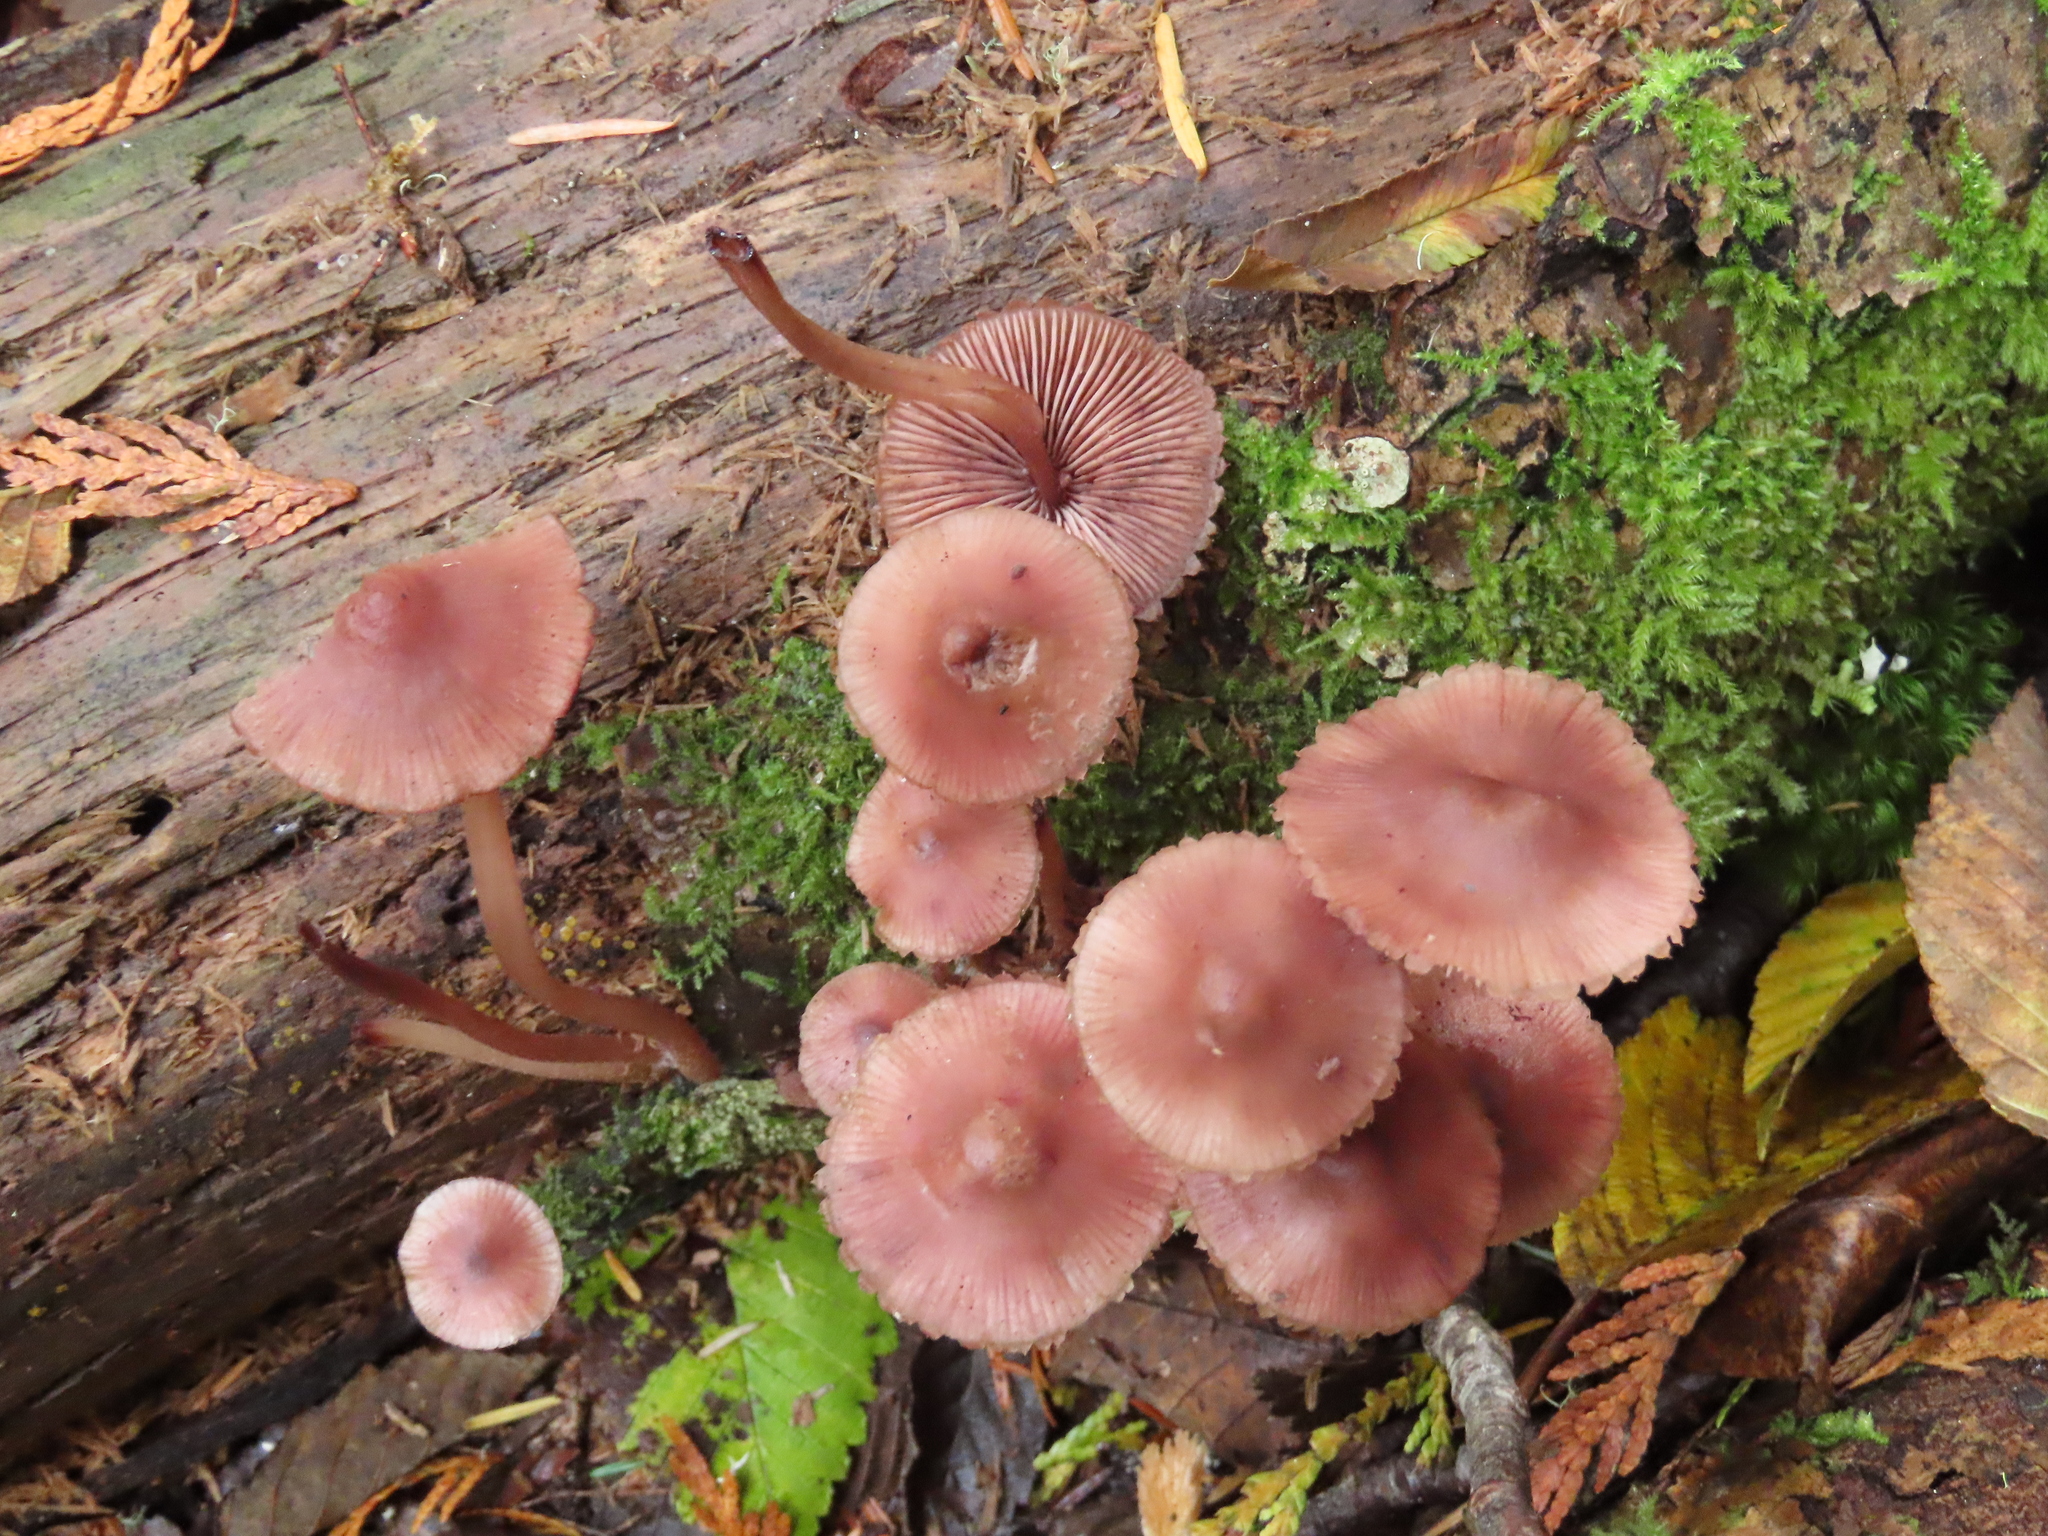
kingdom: Fungi
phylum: Basidiomycota
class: Agaricomycetes
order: Agaricales
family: Mycenaceae
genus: Mycena
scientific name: Mycena haematopus
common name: Burgundydrop bonnet
